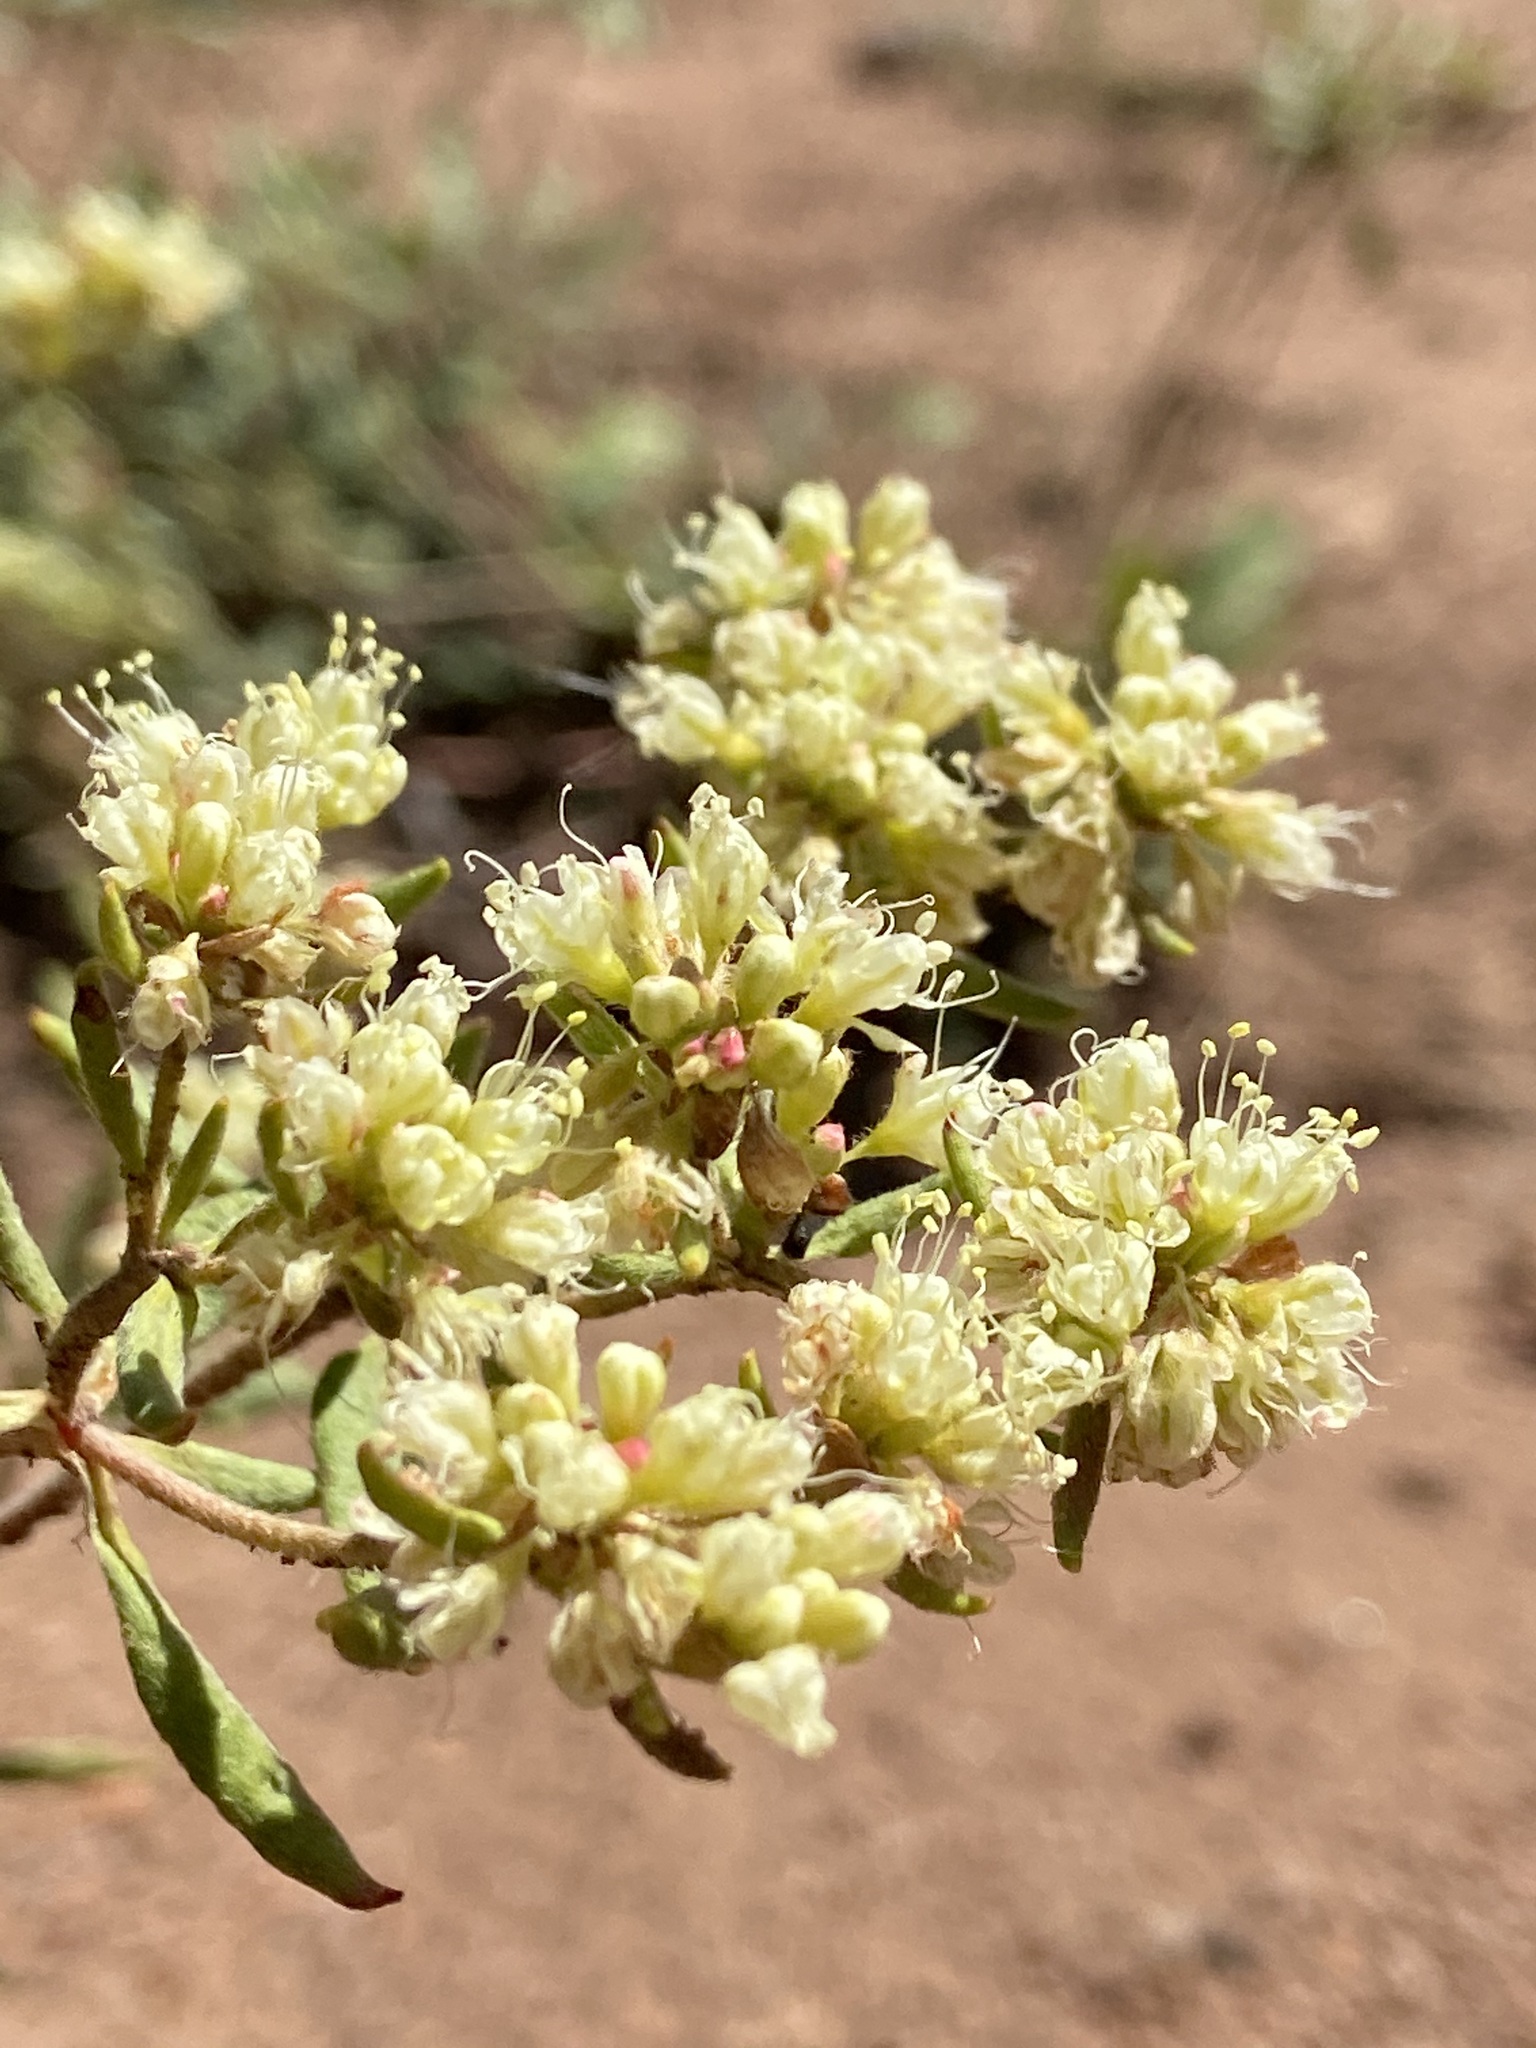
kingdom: Plantae
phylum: Tracheophyta
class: Magnoliopsida
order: Caryophyllales
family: Polygonaceae
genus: Eriogonum
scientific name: Eriogonum jamesii
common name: Antelope-sage
